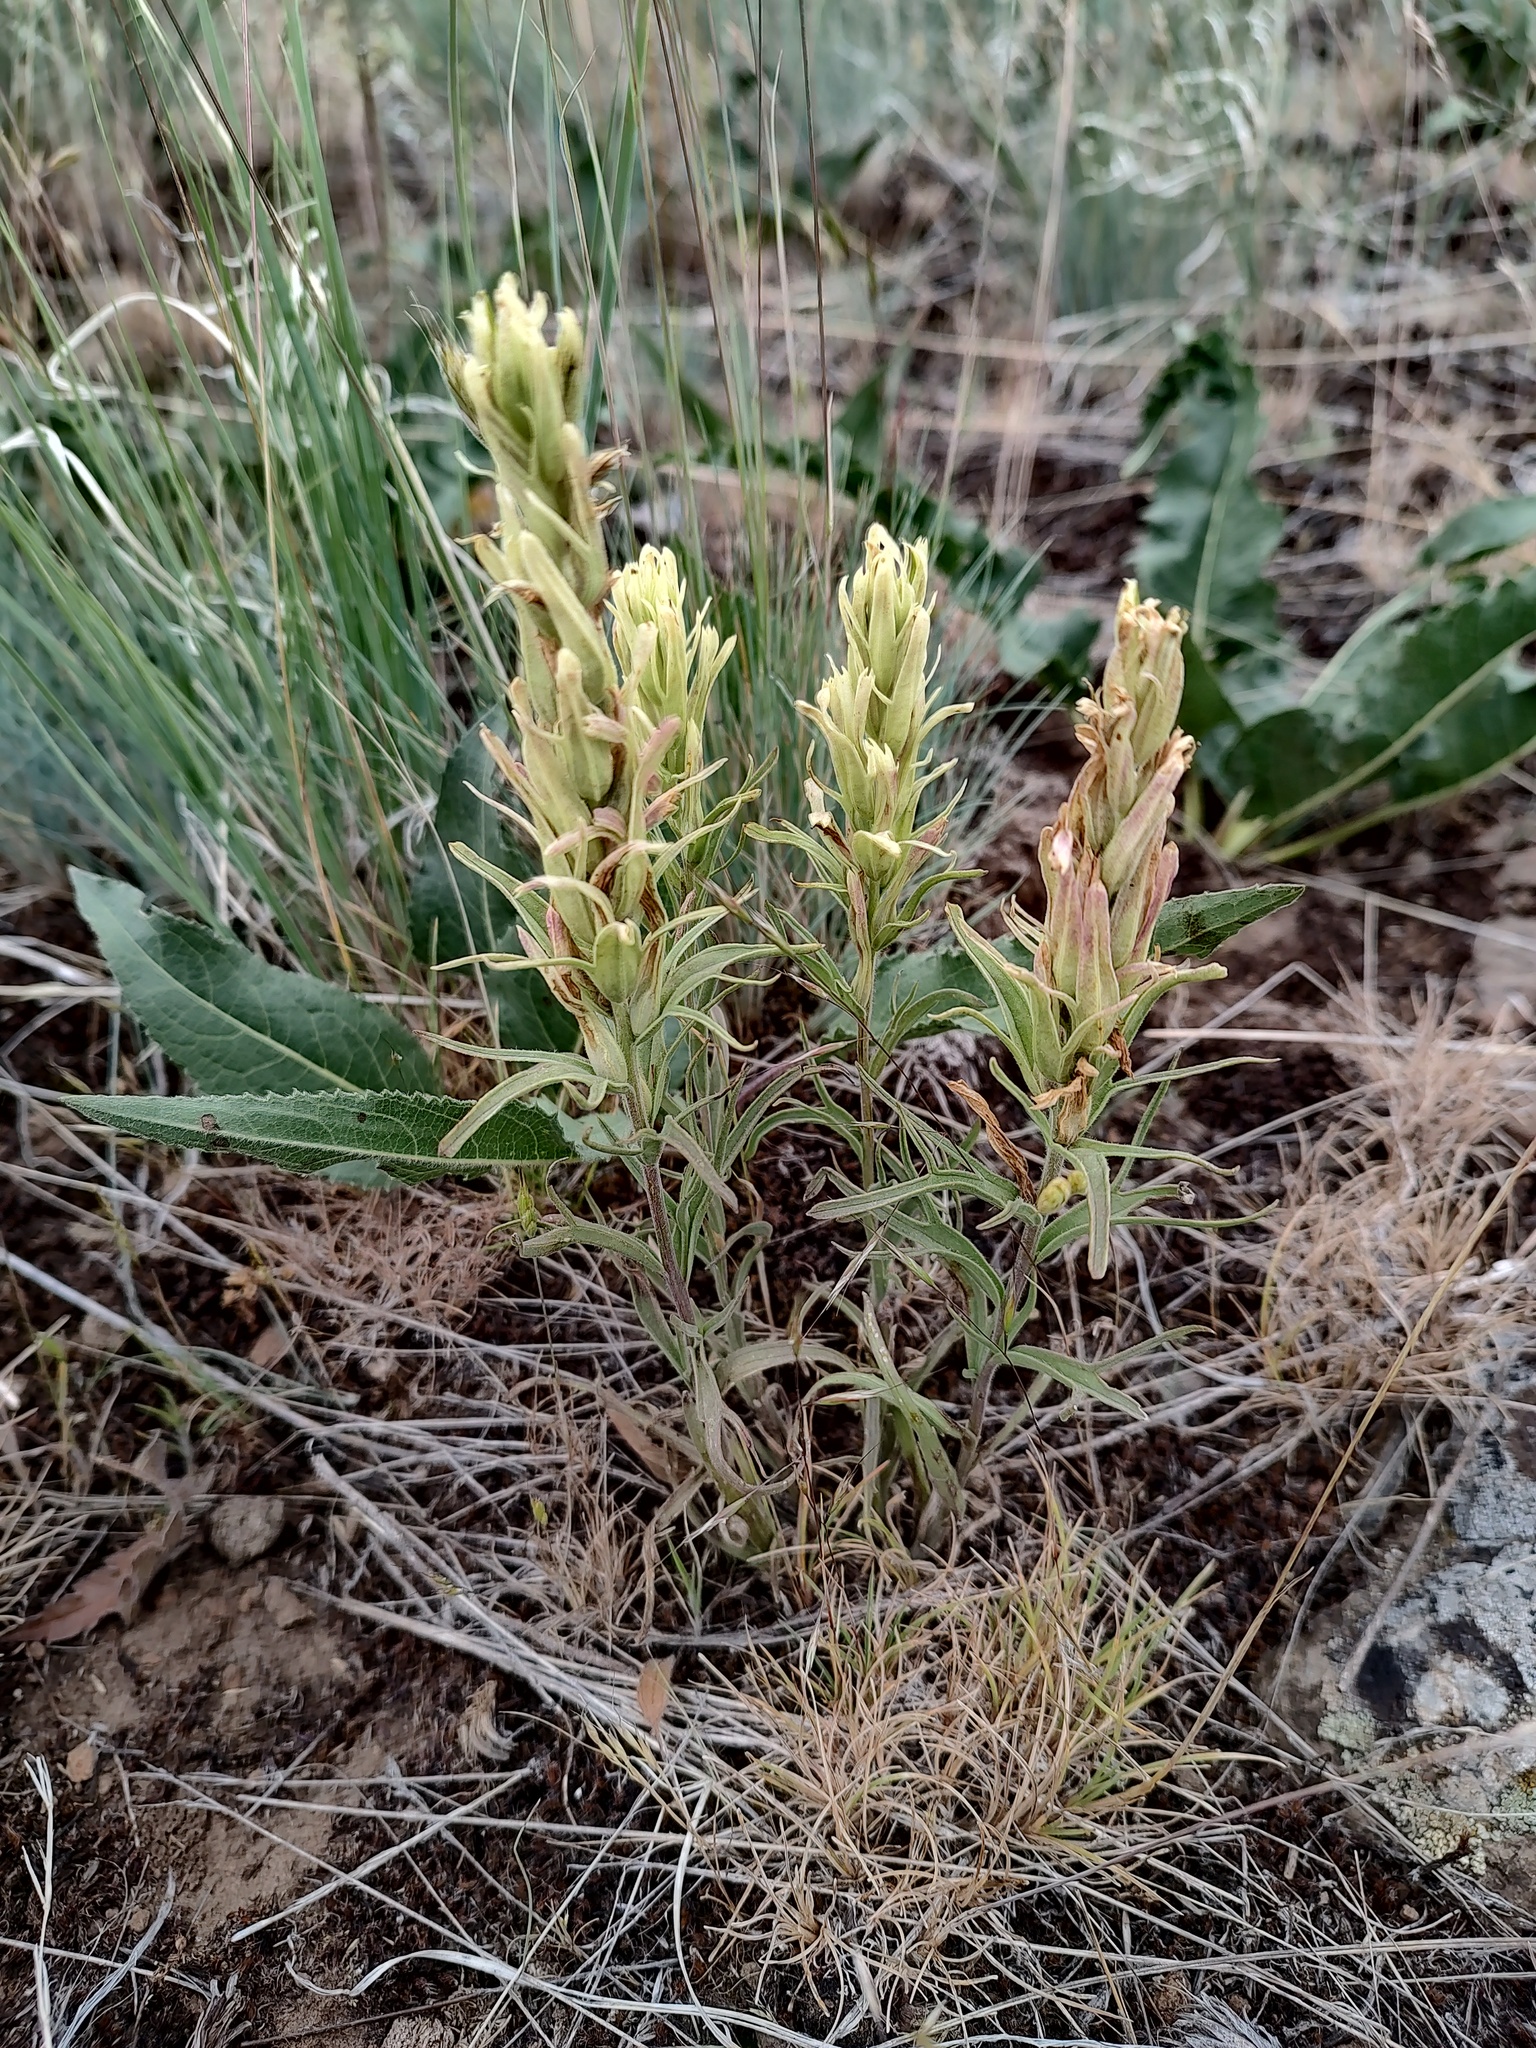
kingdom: Plantae
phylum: Tracheophyta
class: Magnoliopsida
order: Lamiales
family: Orobanchaceae
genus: Castilleja
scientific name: Castilleja lutescens
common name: Yellowish paintbrush
